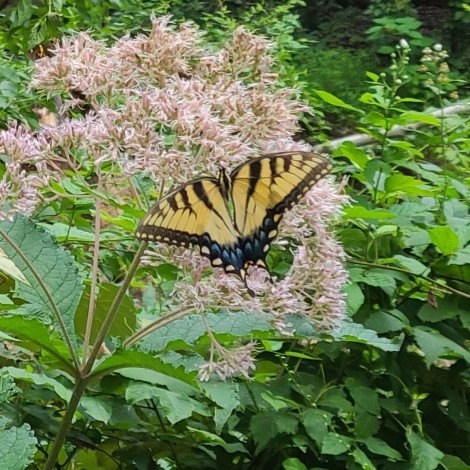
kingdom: Animalia
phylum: Arthropoda
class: Insecta
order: Lepidoptera
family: Papilionidae
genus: Papilio
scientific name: Papilio glaucus
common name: Tiger swallowtail
